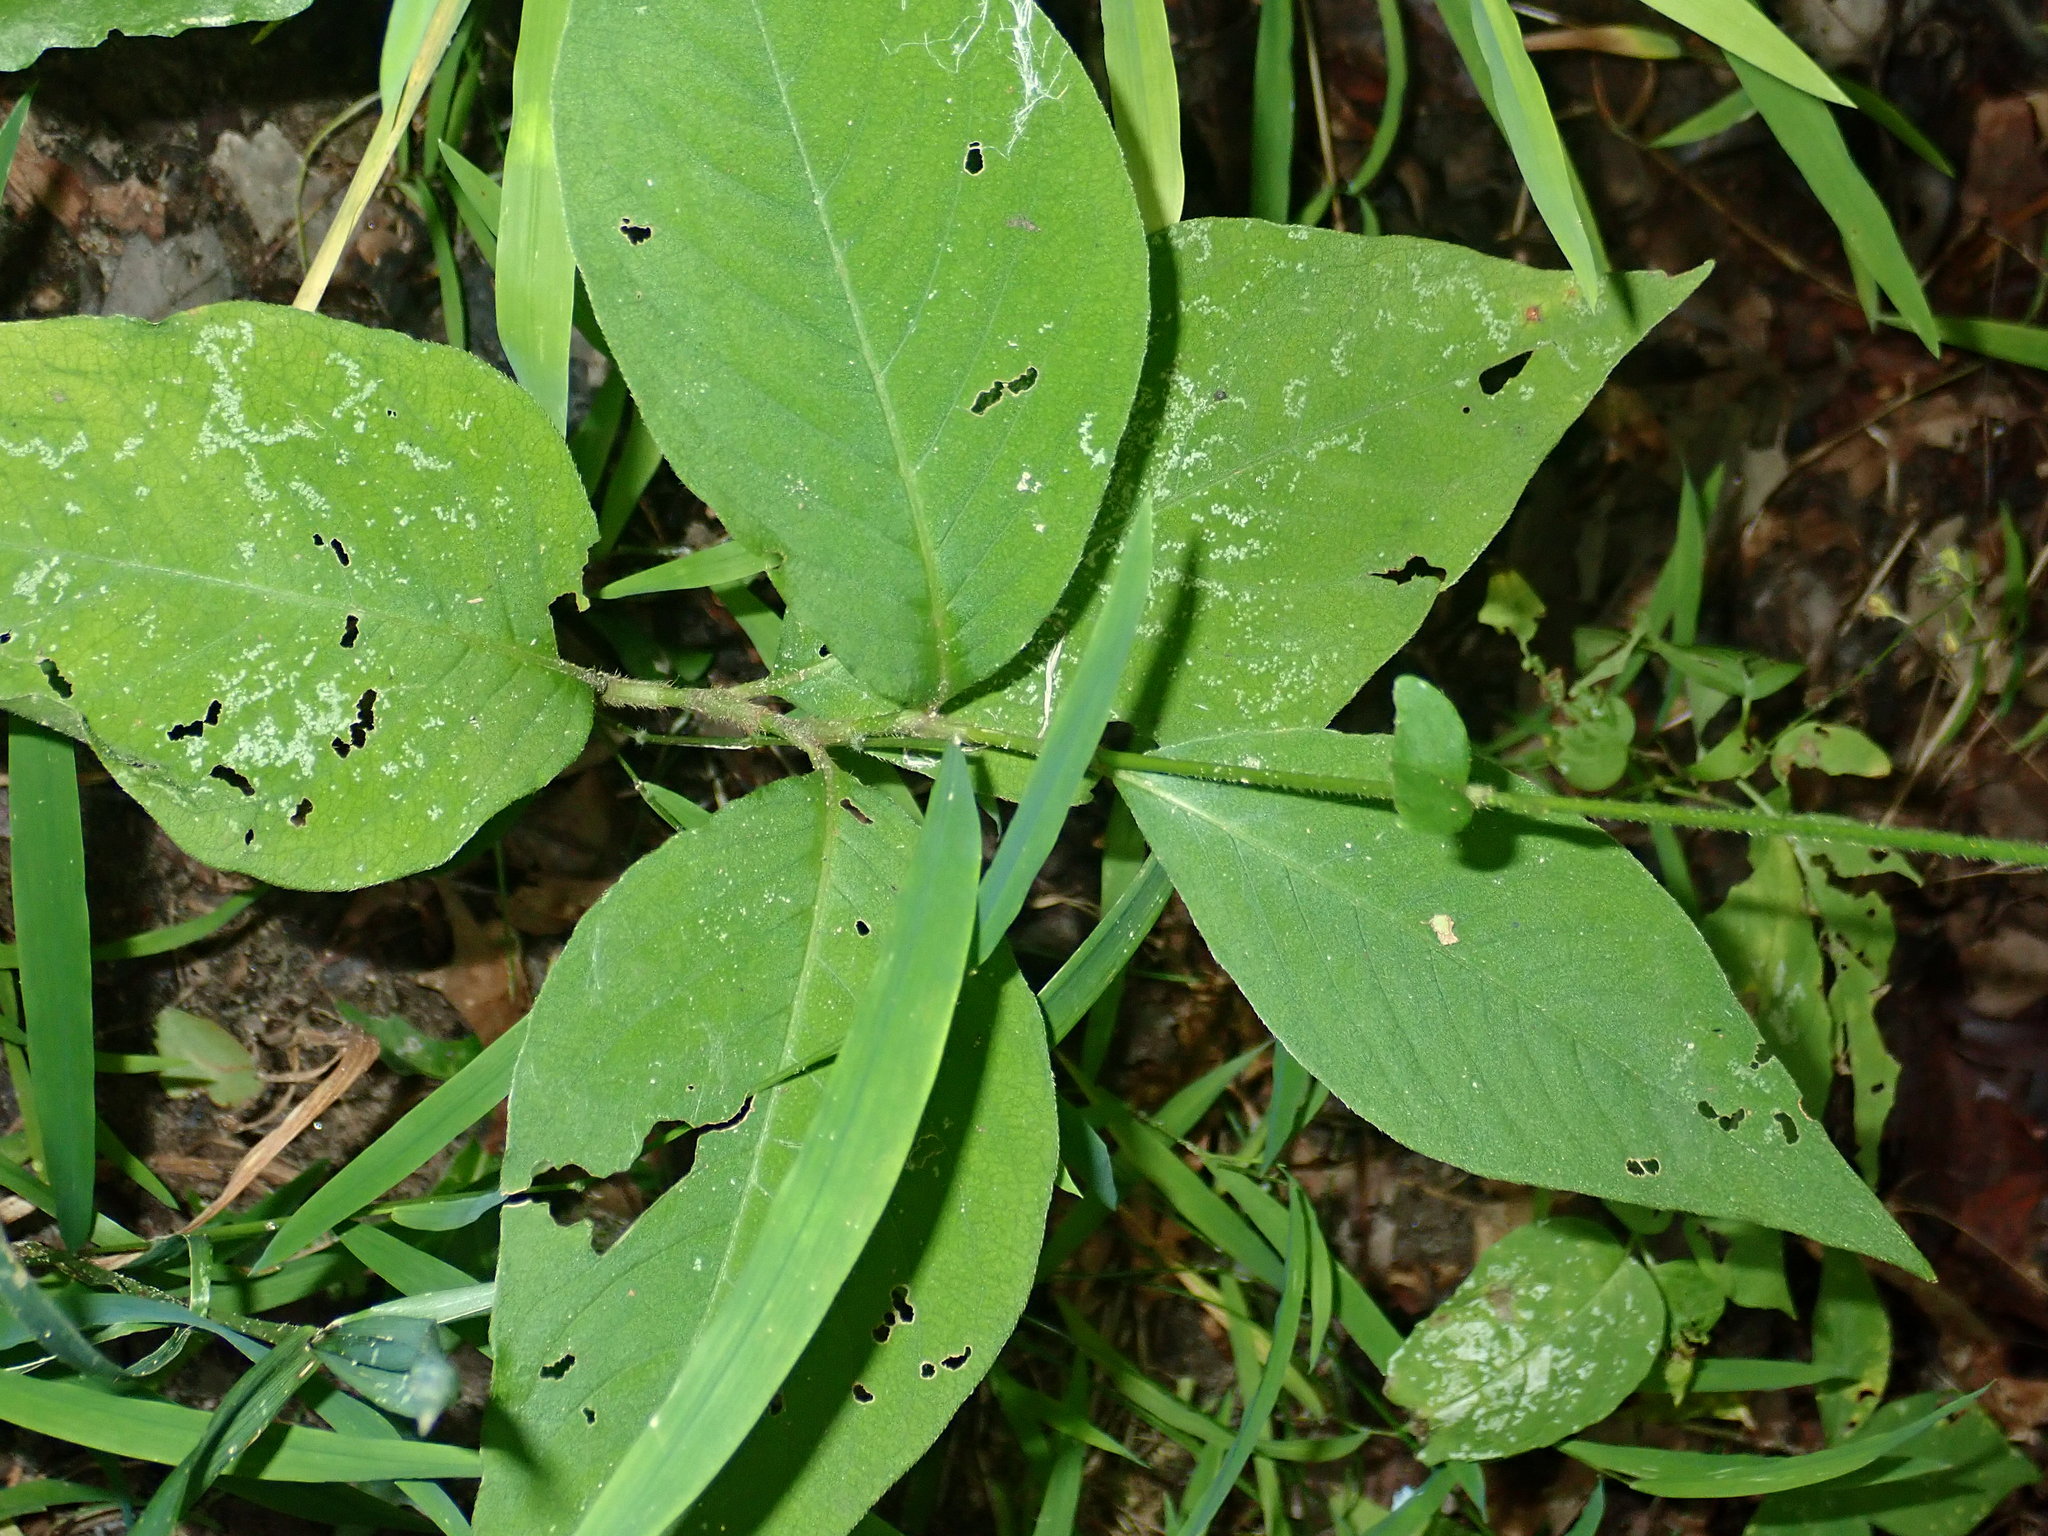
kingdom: Plantae
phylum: Tracheophyta
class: Magnoliopsida
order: Caryophyllales
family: Polygonaceae
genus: Persicaria
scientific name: Persicaria virginiana
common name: Jumpseed
